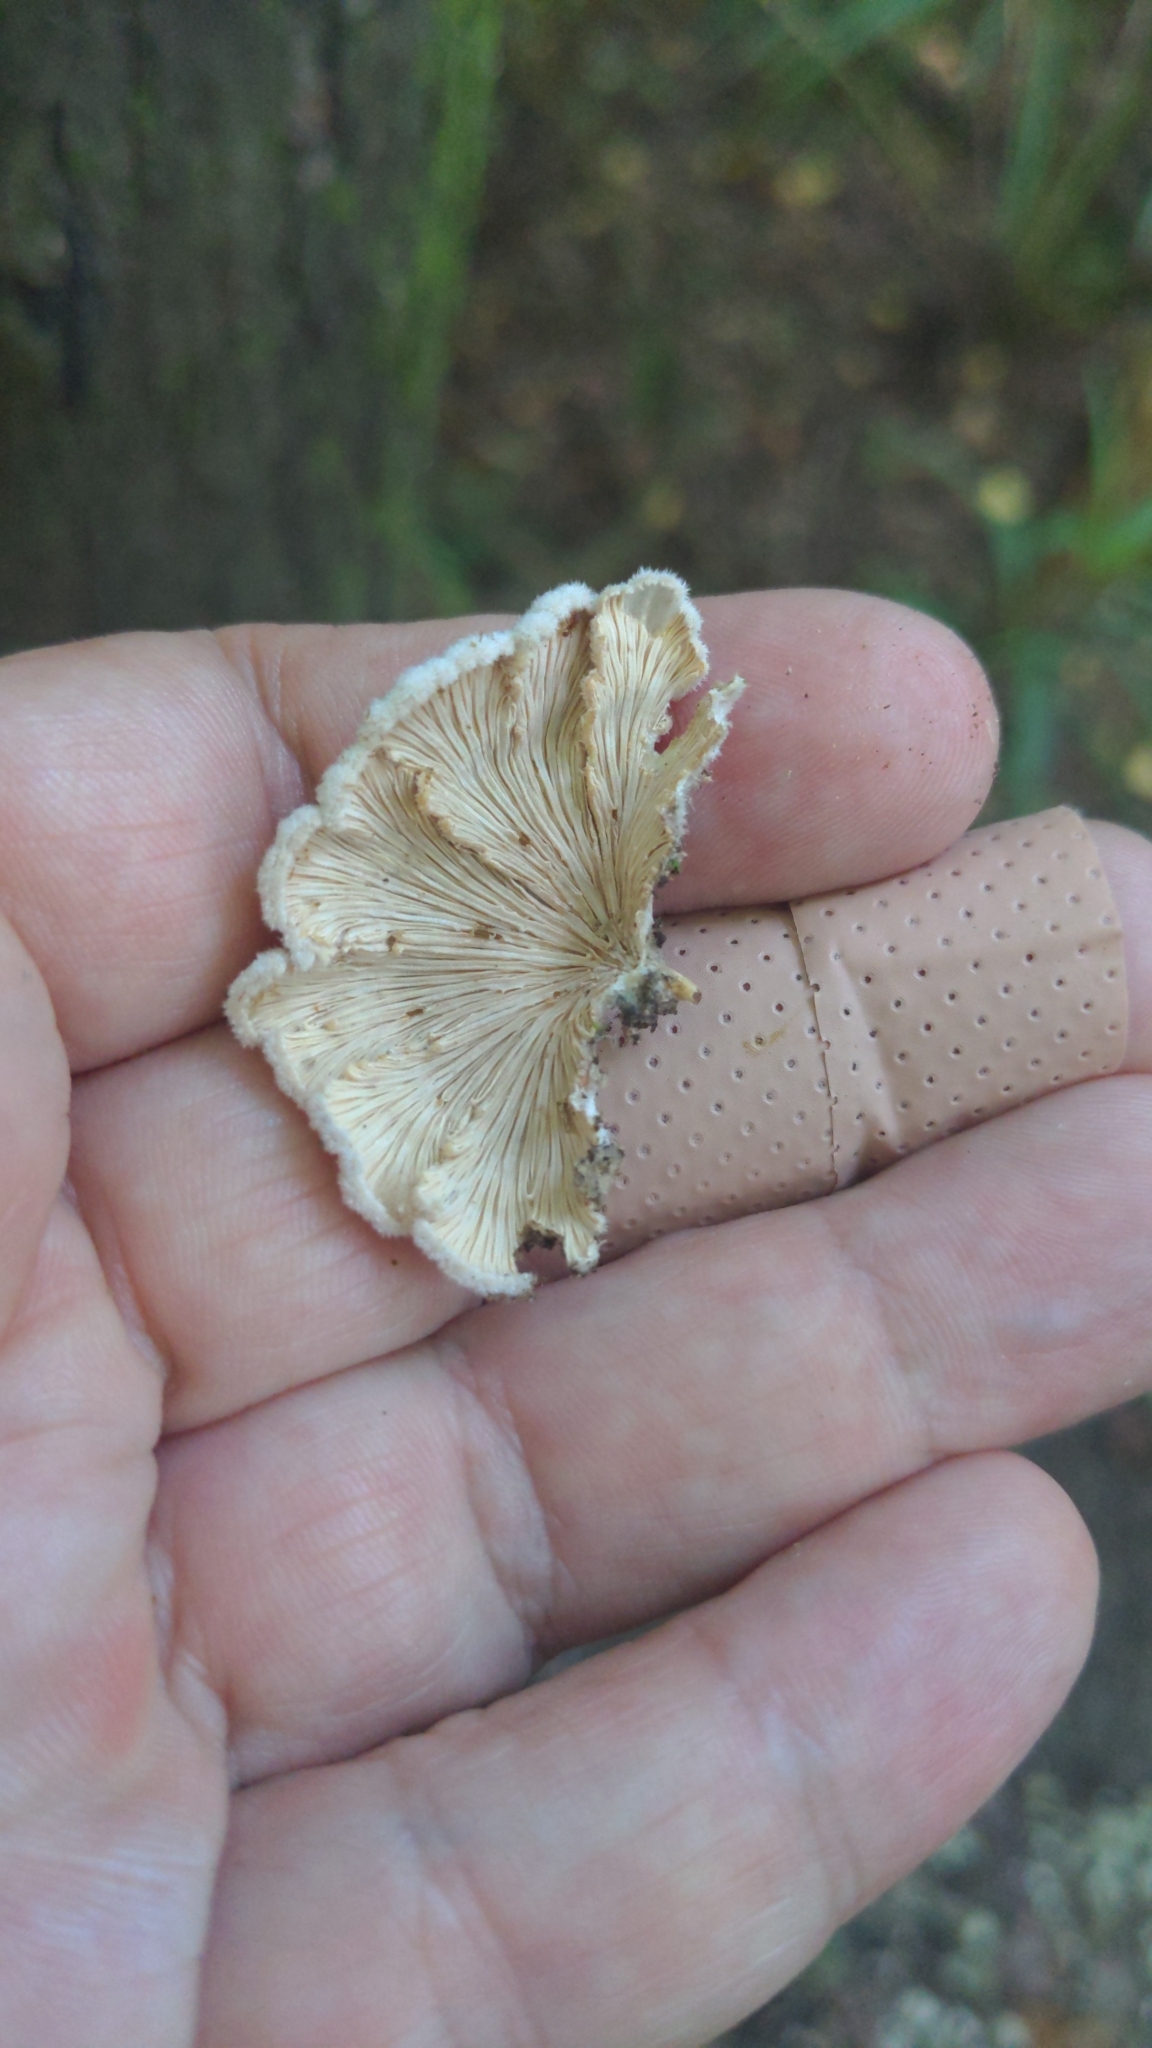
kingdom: Fungi
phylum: Basidiomycota
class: Agaricomycetes
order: Agaricales
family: Schizophyllaceae
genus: Schizophyllum
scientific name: Schizophyllum commune
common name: Common porecrust
